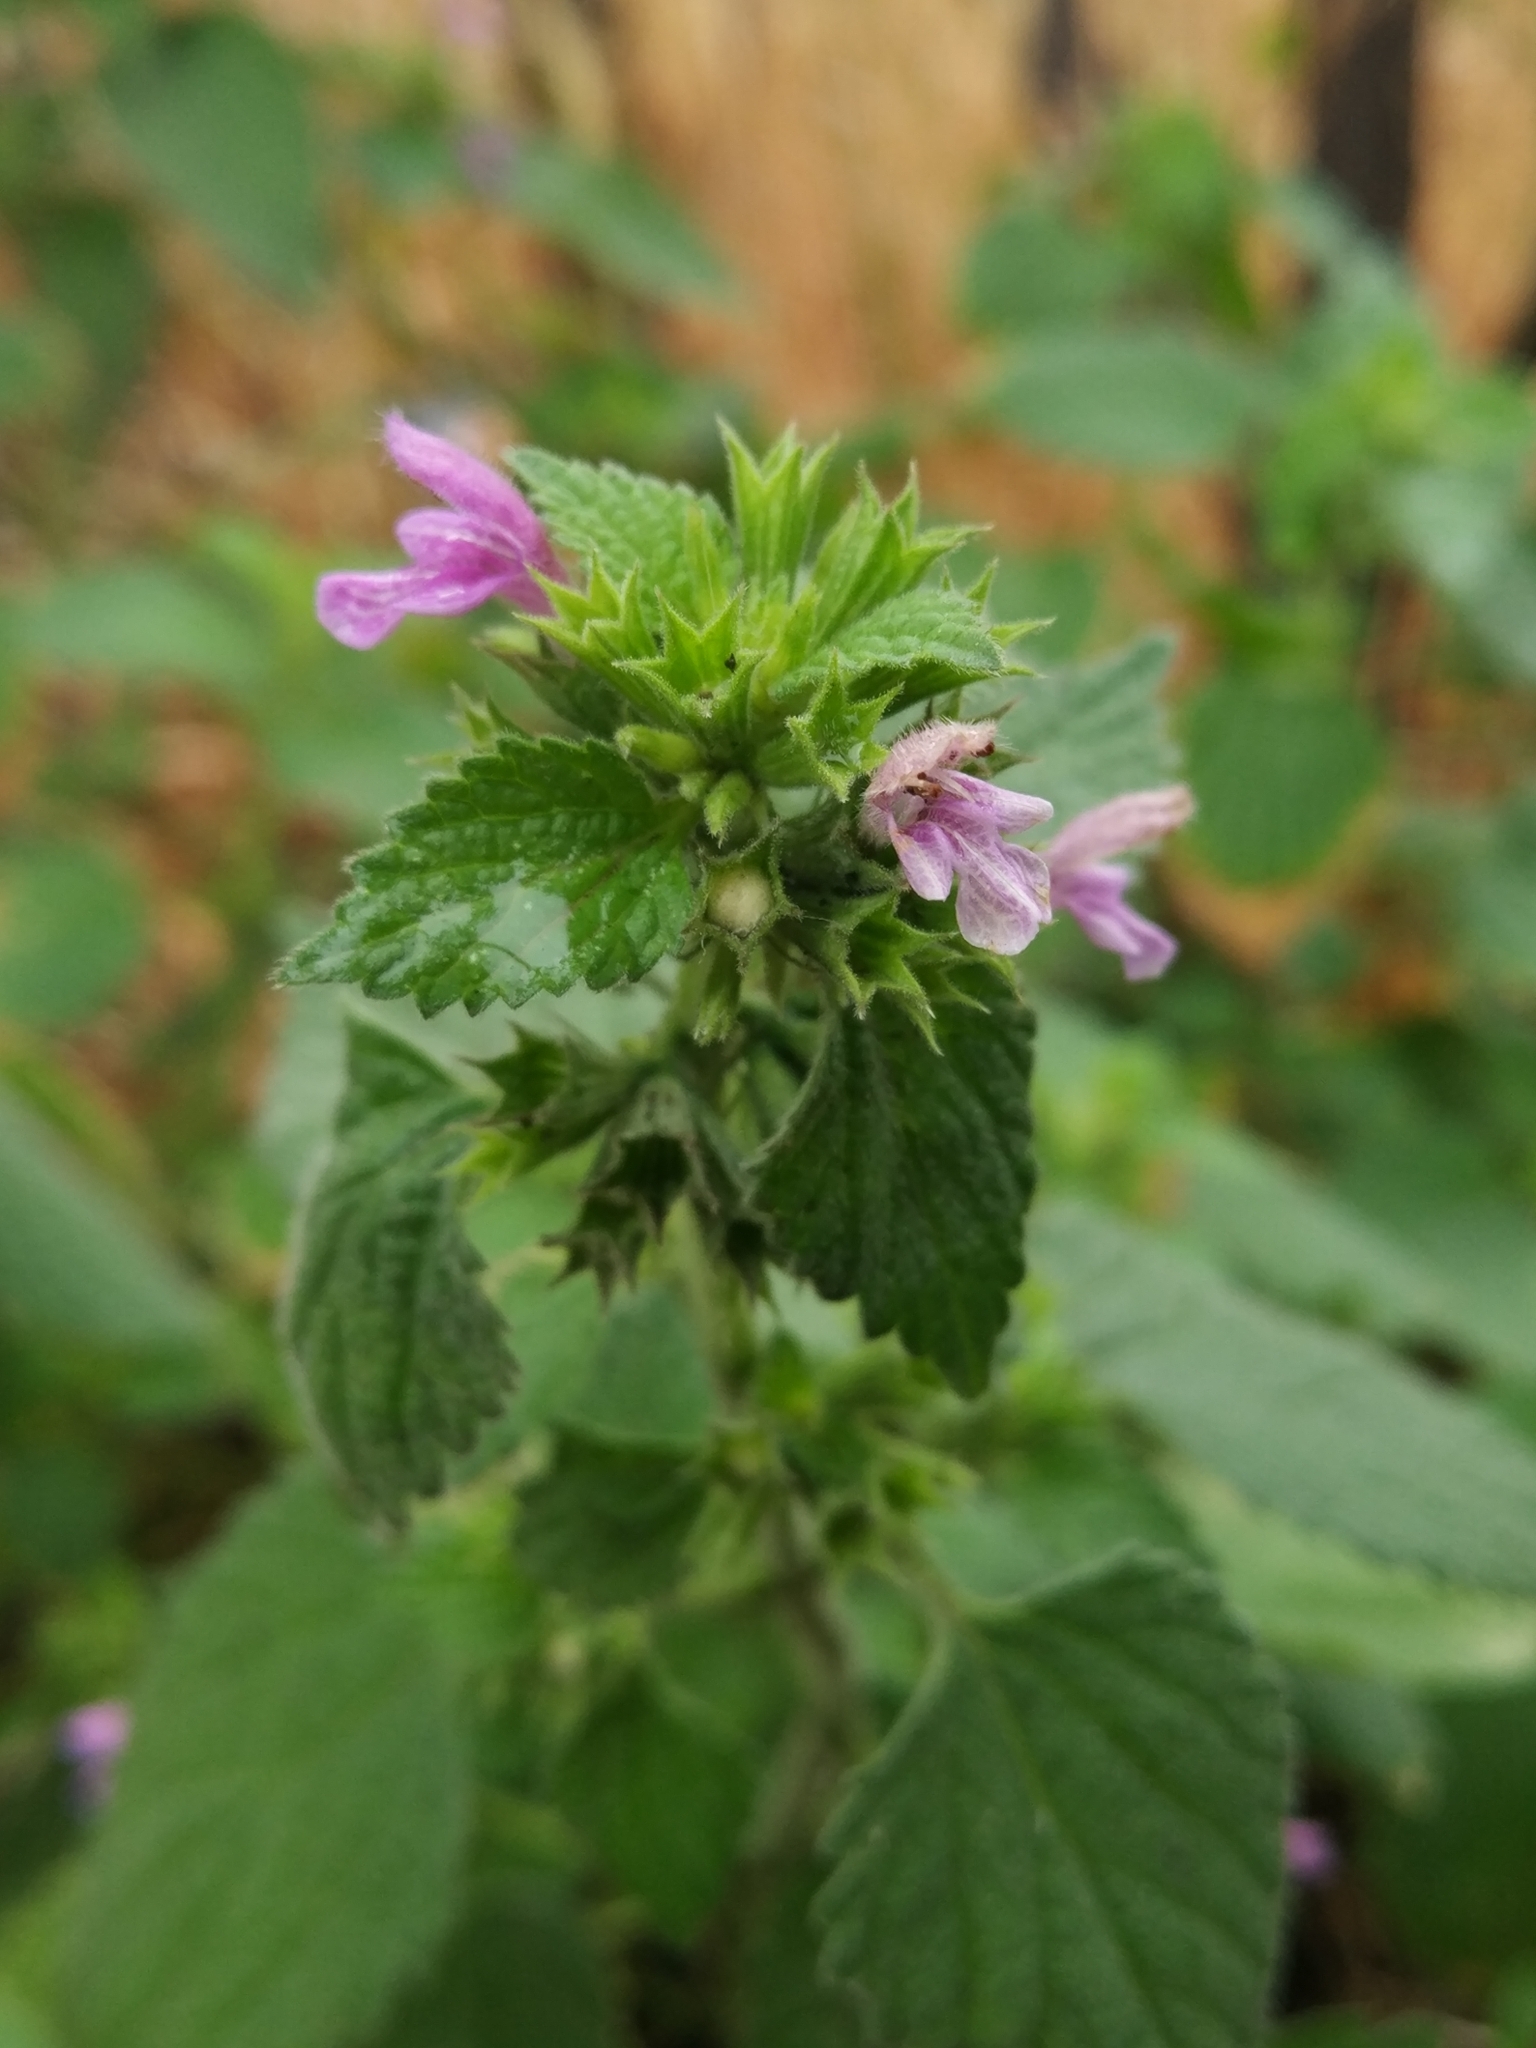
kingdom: Plantae
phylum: Tracheophyta
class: Magnoliopsida
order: Lamiales
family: Lamiaceae
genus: Ballota
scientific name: Ballota nigra
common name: Black horehound
